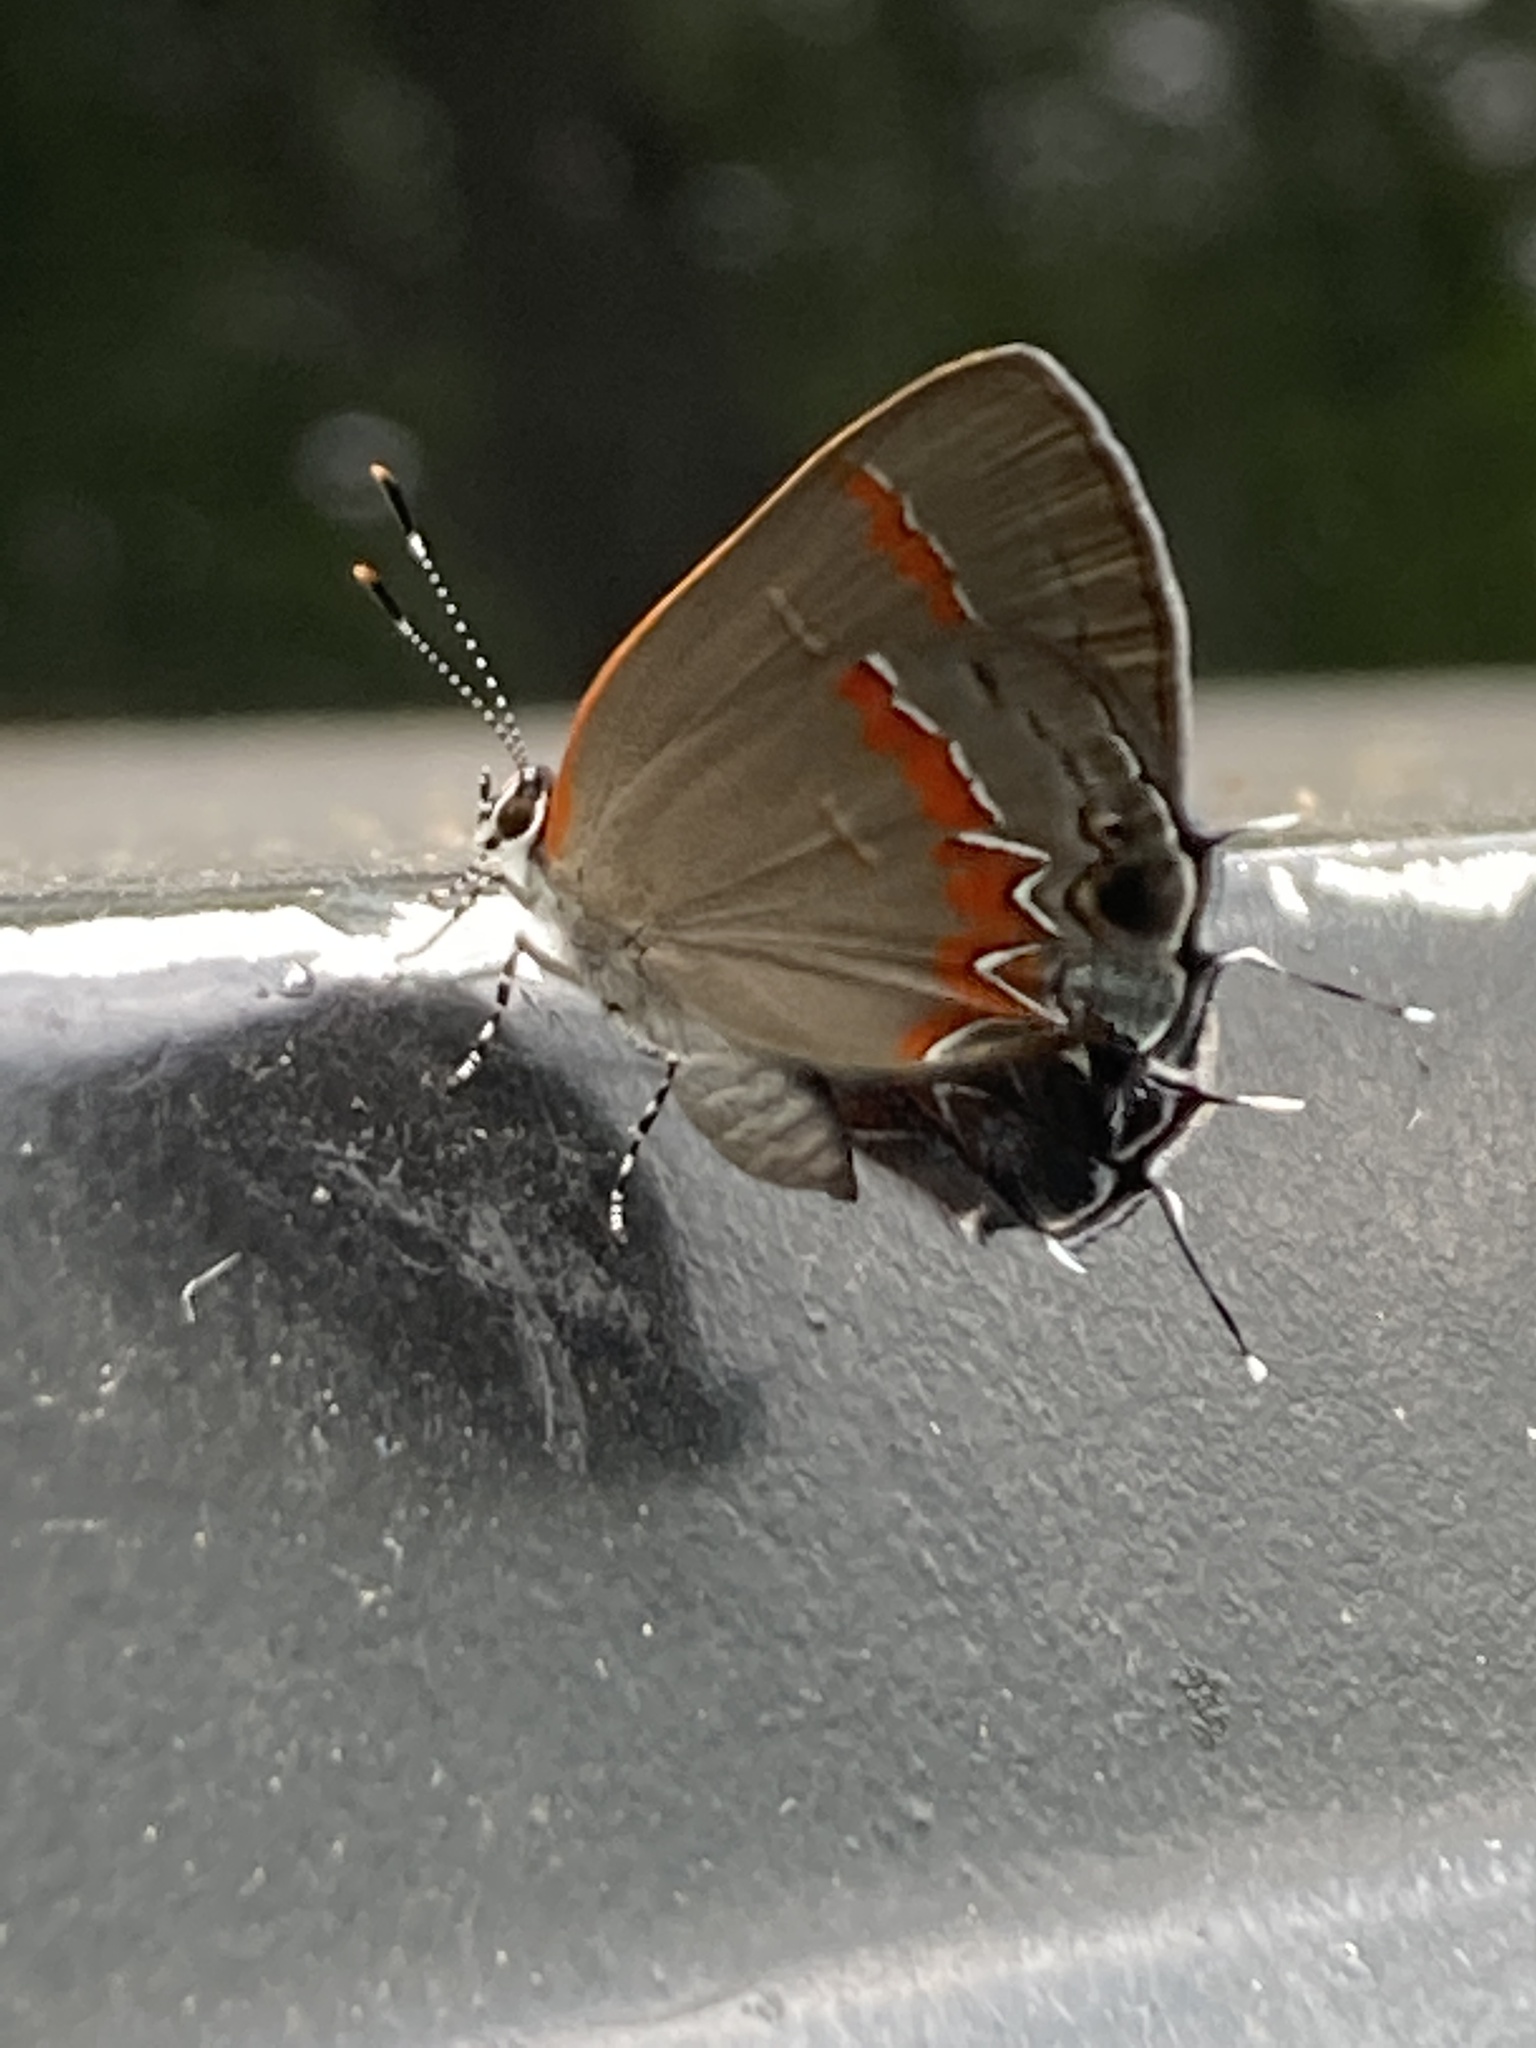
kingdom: Animalia
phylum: Arthropoda
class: Insecta
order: Lepidoptera
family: Lycaenidae
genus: Calycopis
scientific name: Calycopis cecrops
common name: Red-banded hairstreak
